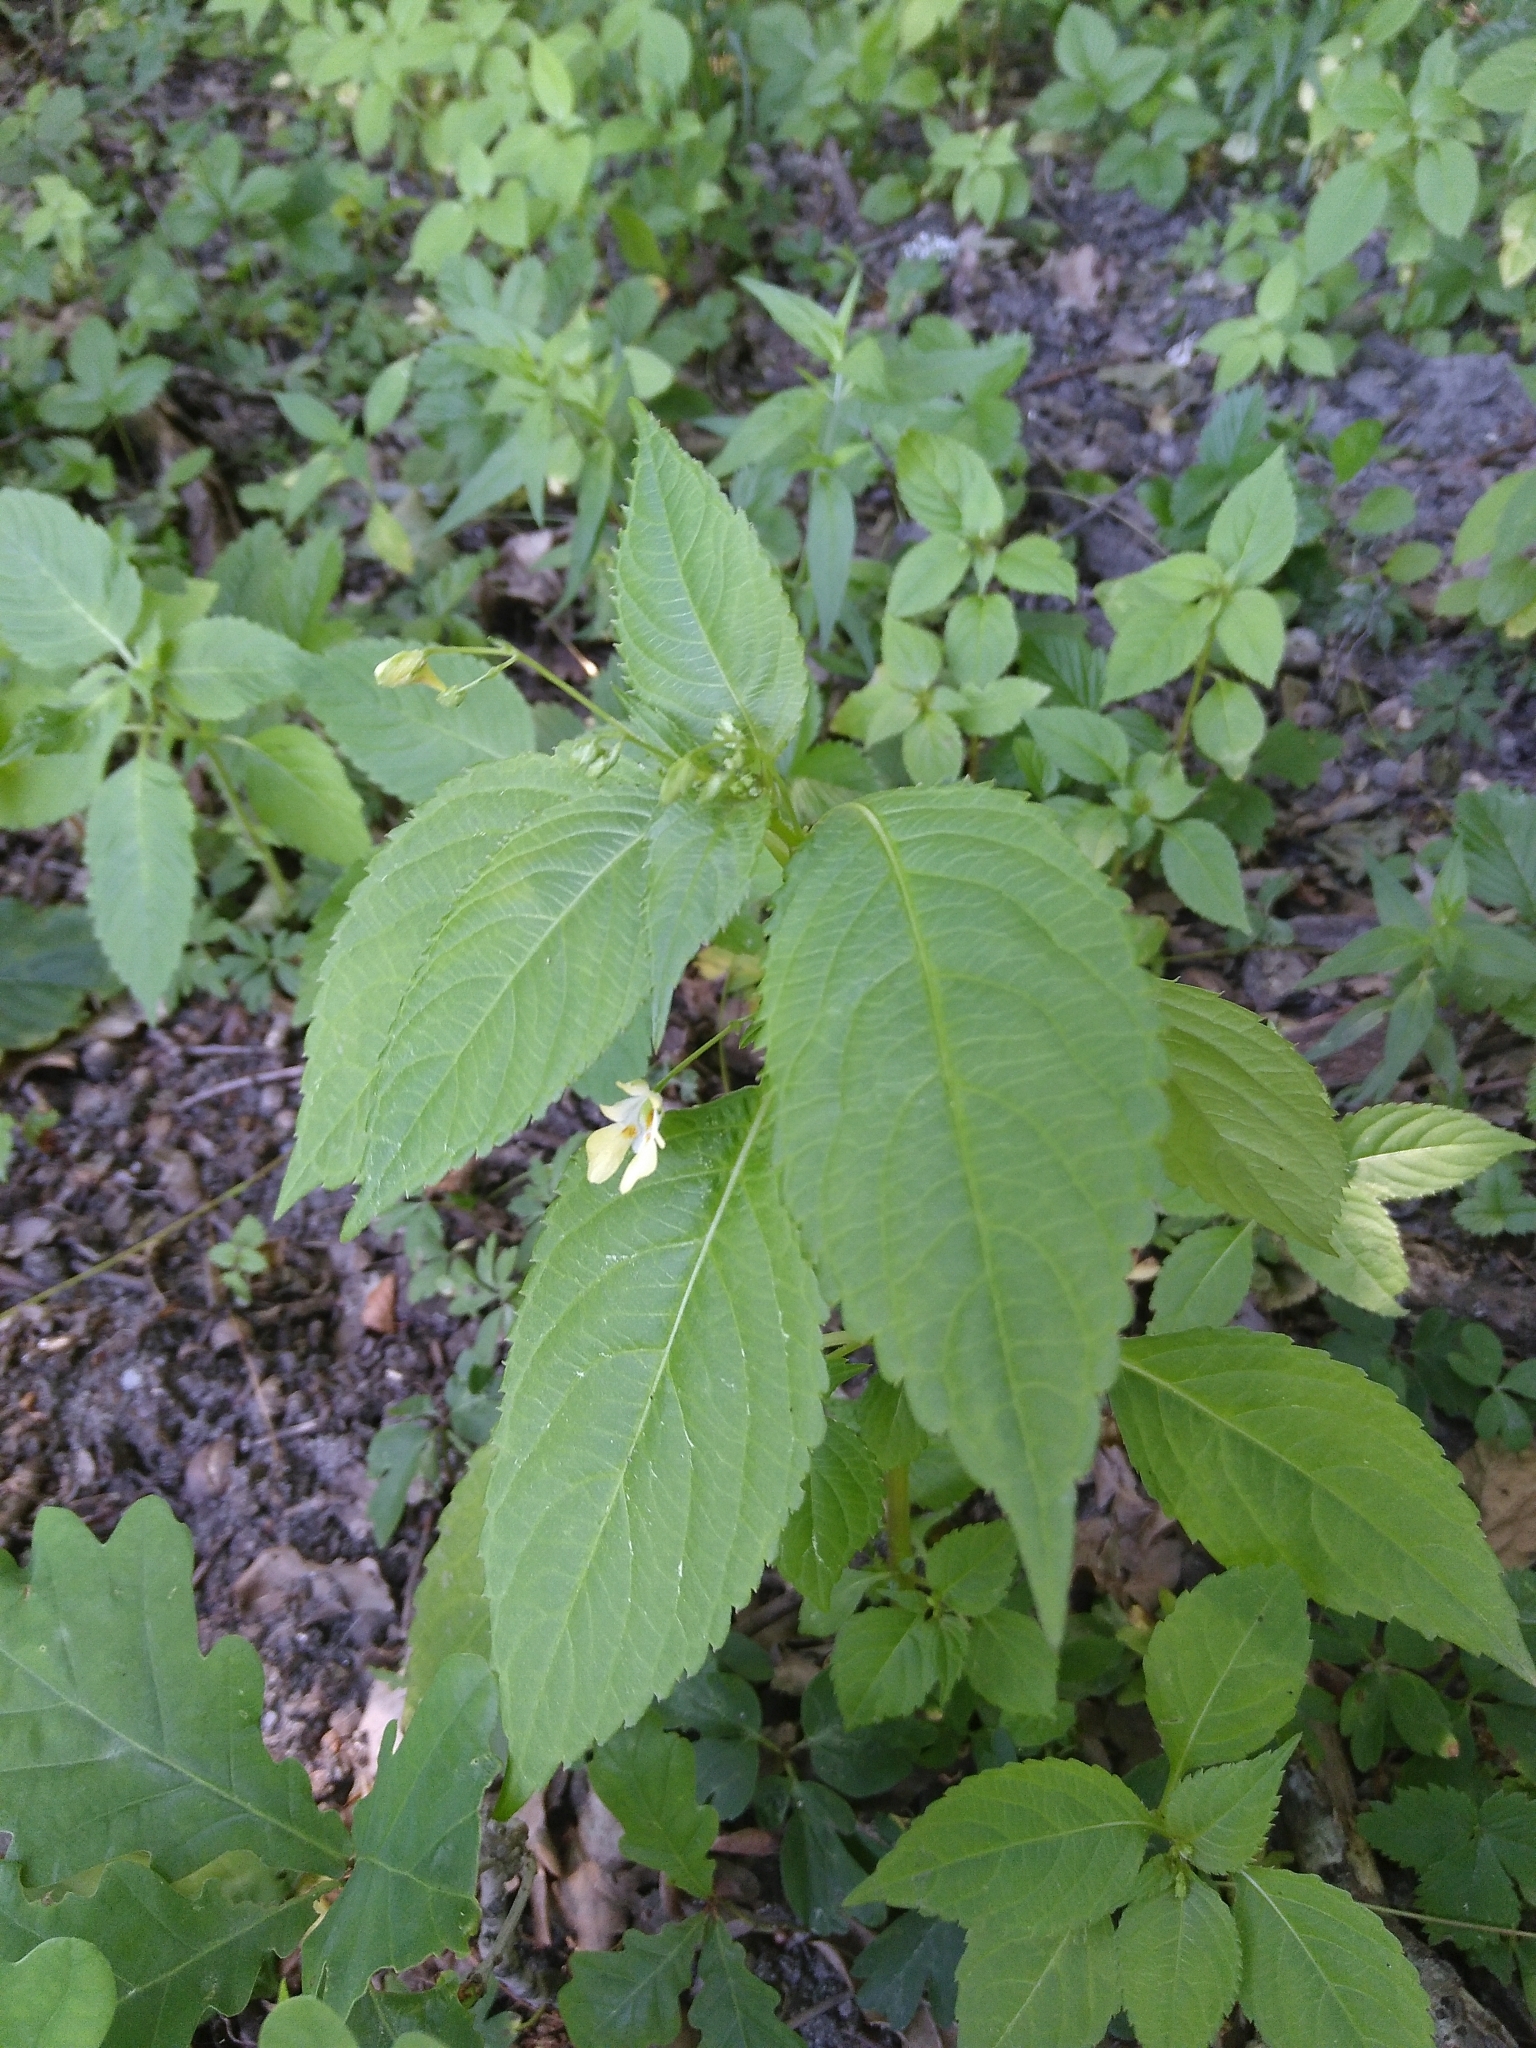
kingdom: Plantae
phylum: Tracheophyta
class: Magnoliopsida
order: Ericales
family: Balsaminaceae
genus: Impatiens
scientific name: Impatiens parviflora
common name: Small balsam
